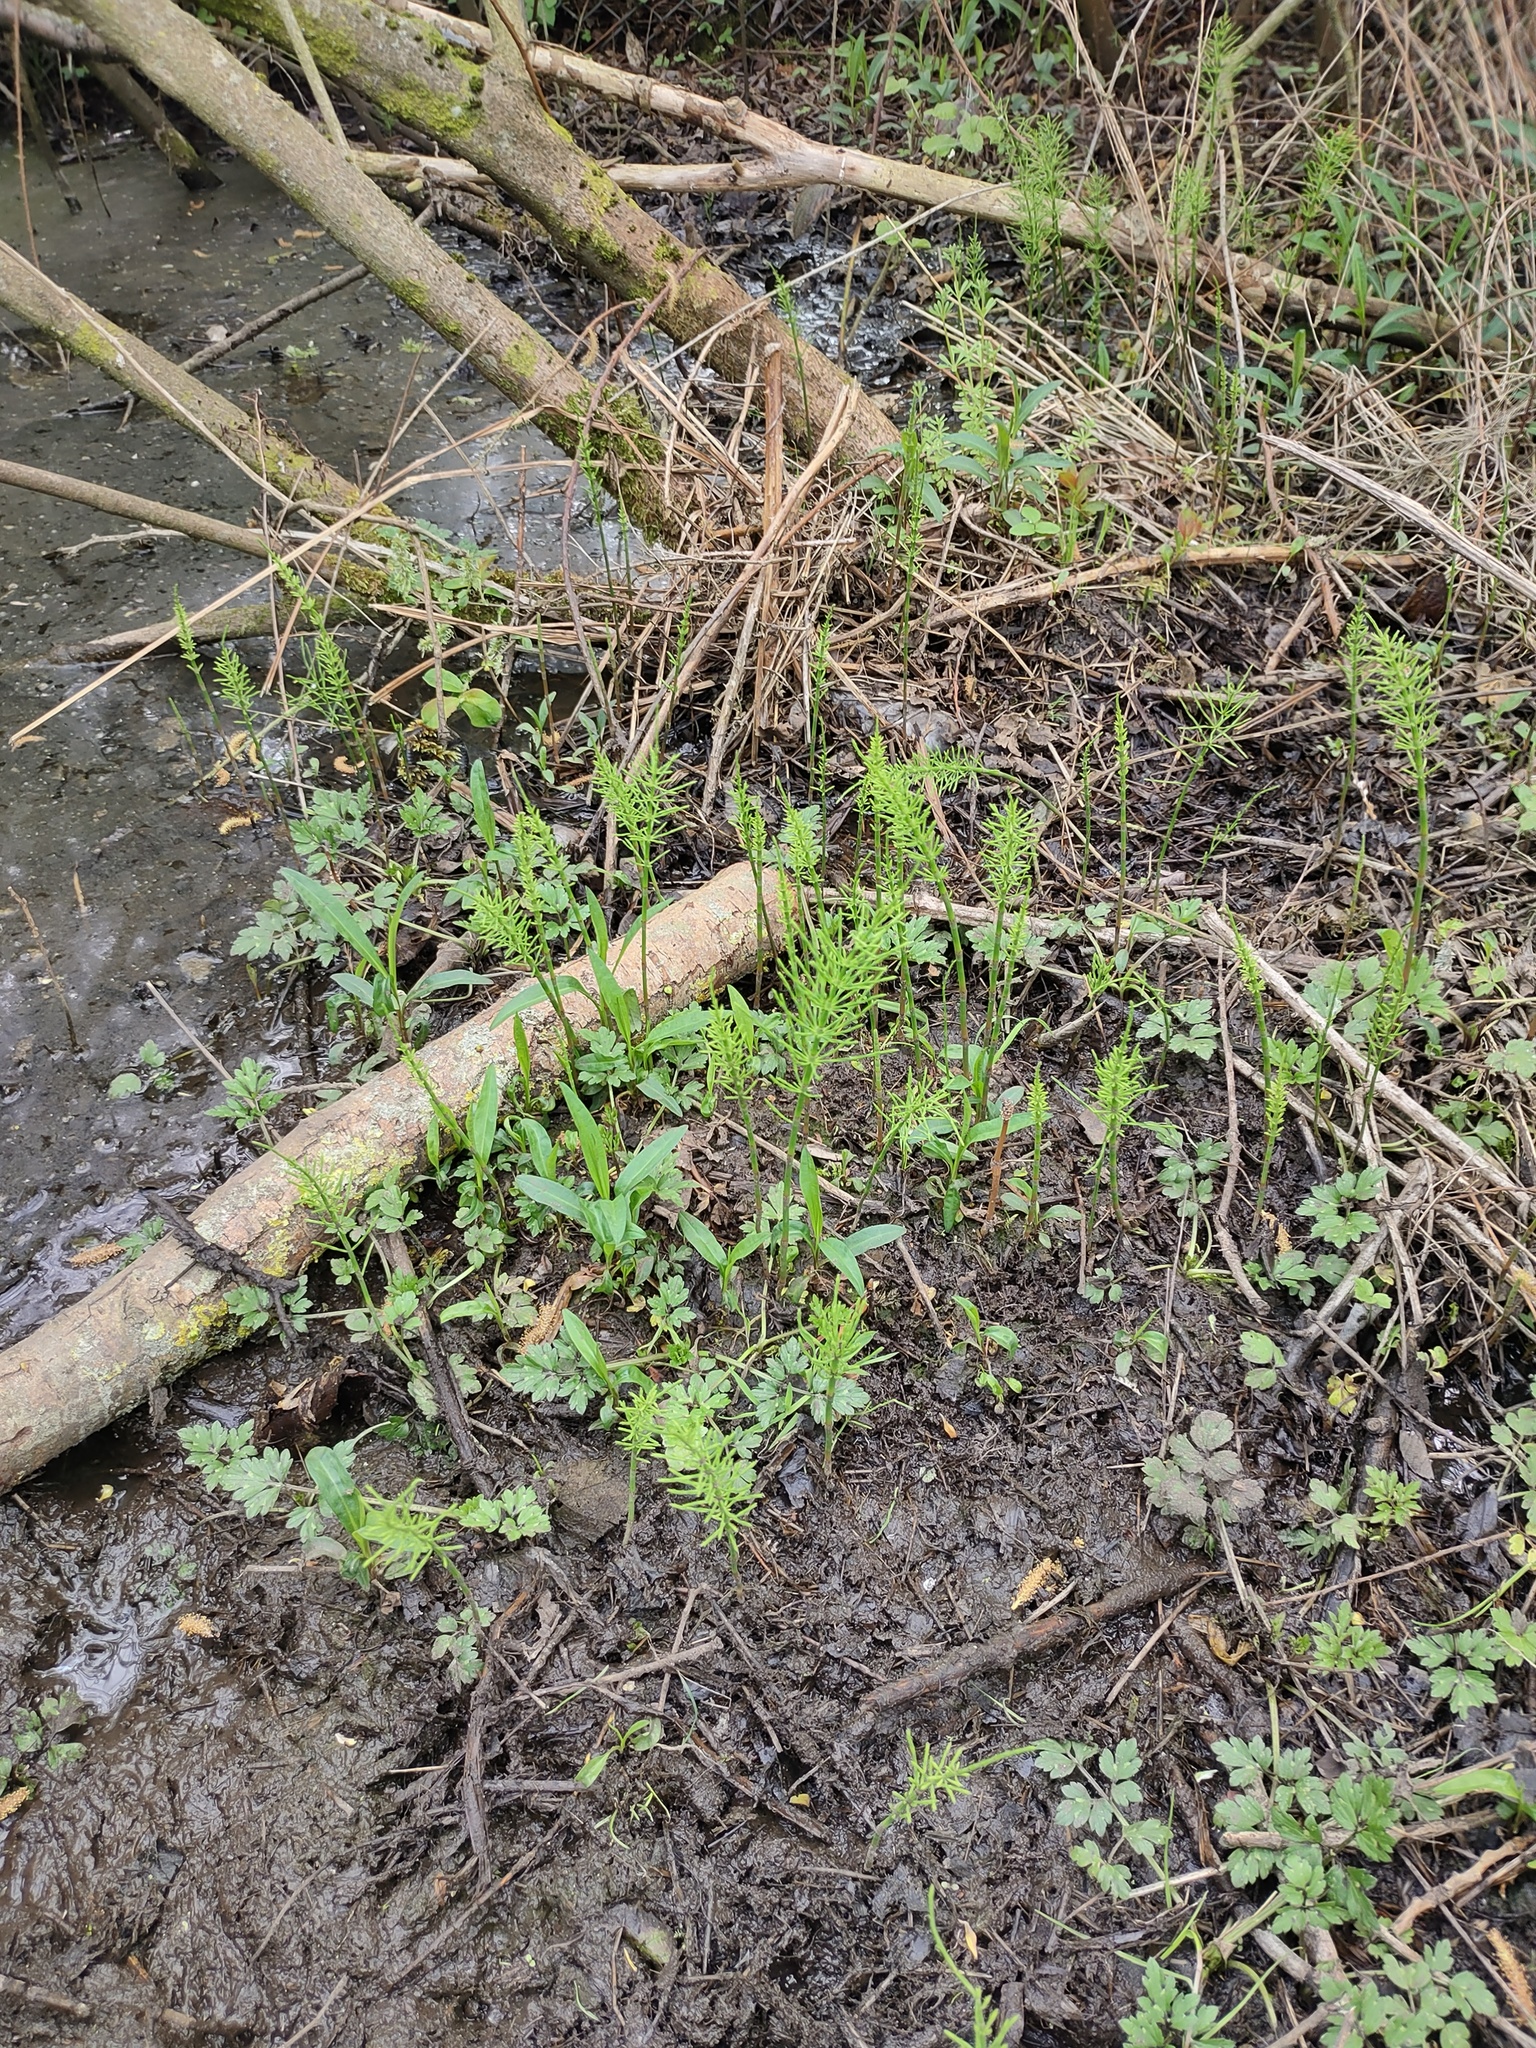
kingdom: Plantae
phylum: Tracheophyta
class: Polypodiopsida
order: Equisetales
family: Equisetaceae
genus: Equisetum
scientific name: Equisetum arvense
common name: Field horsetail
